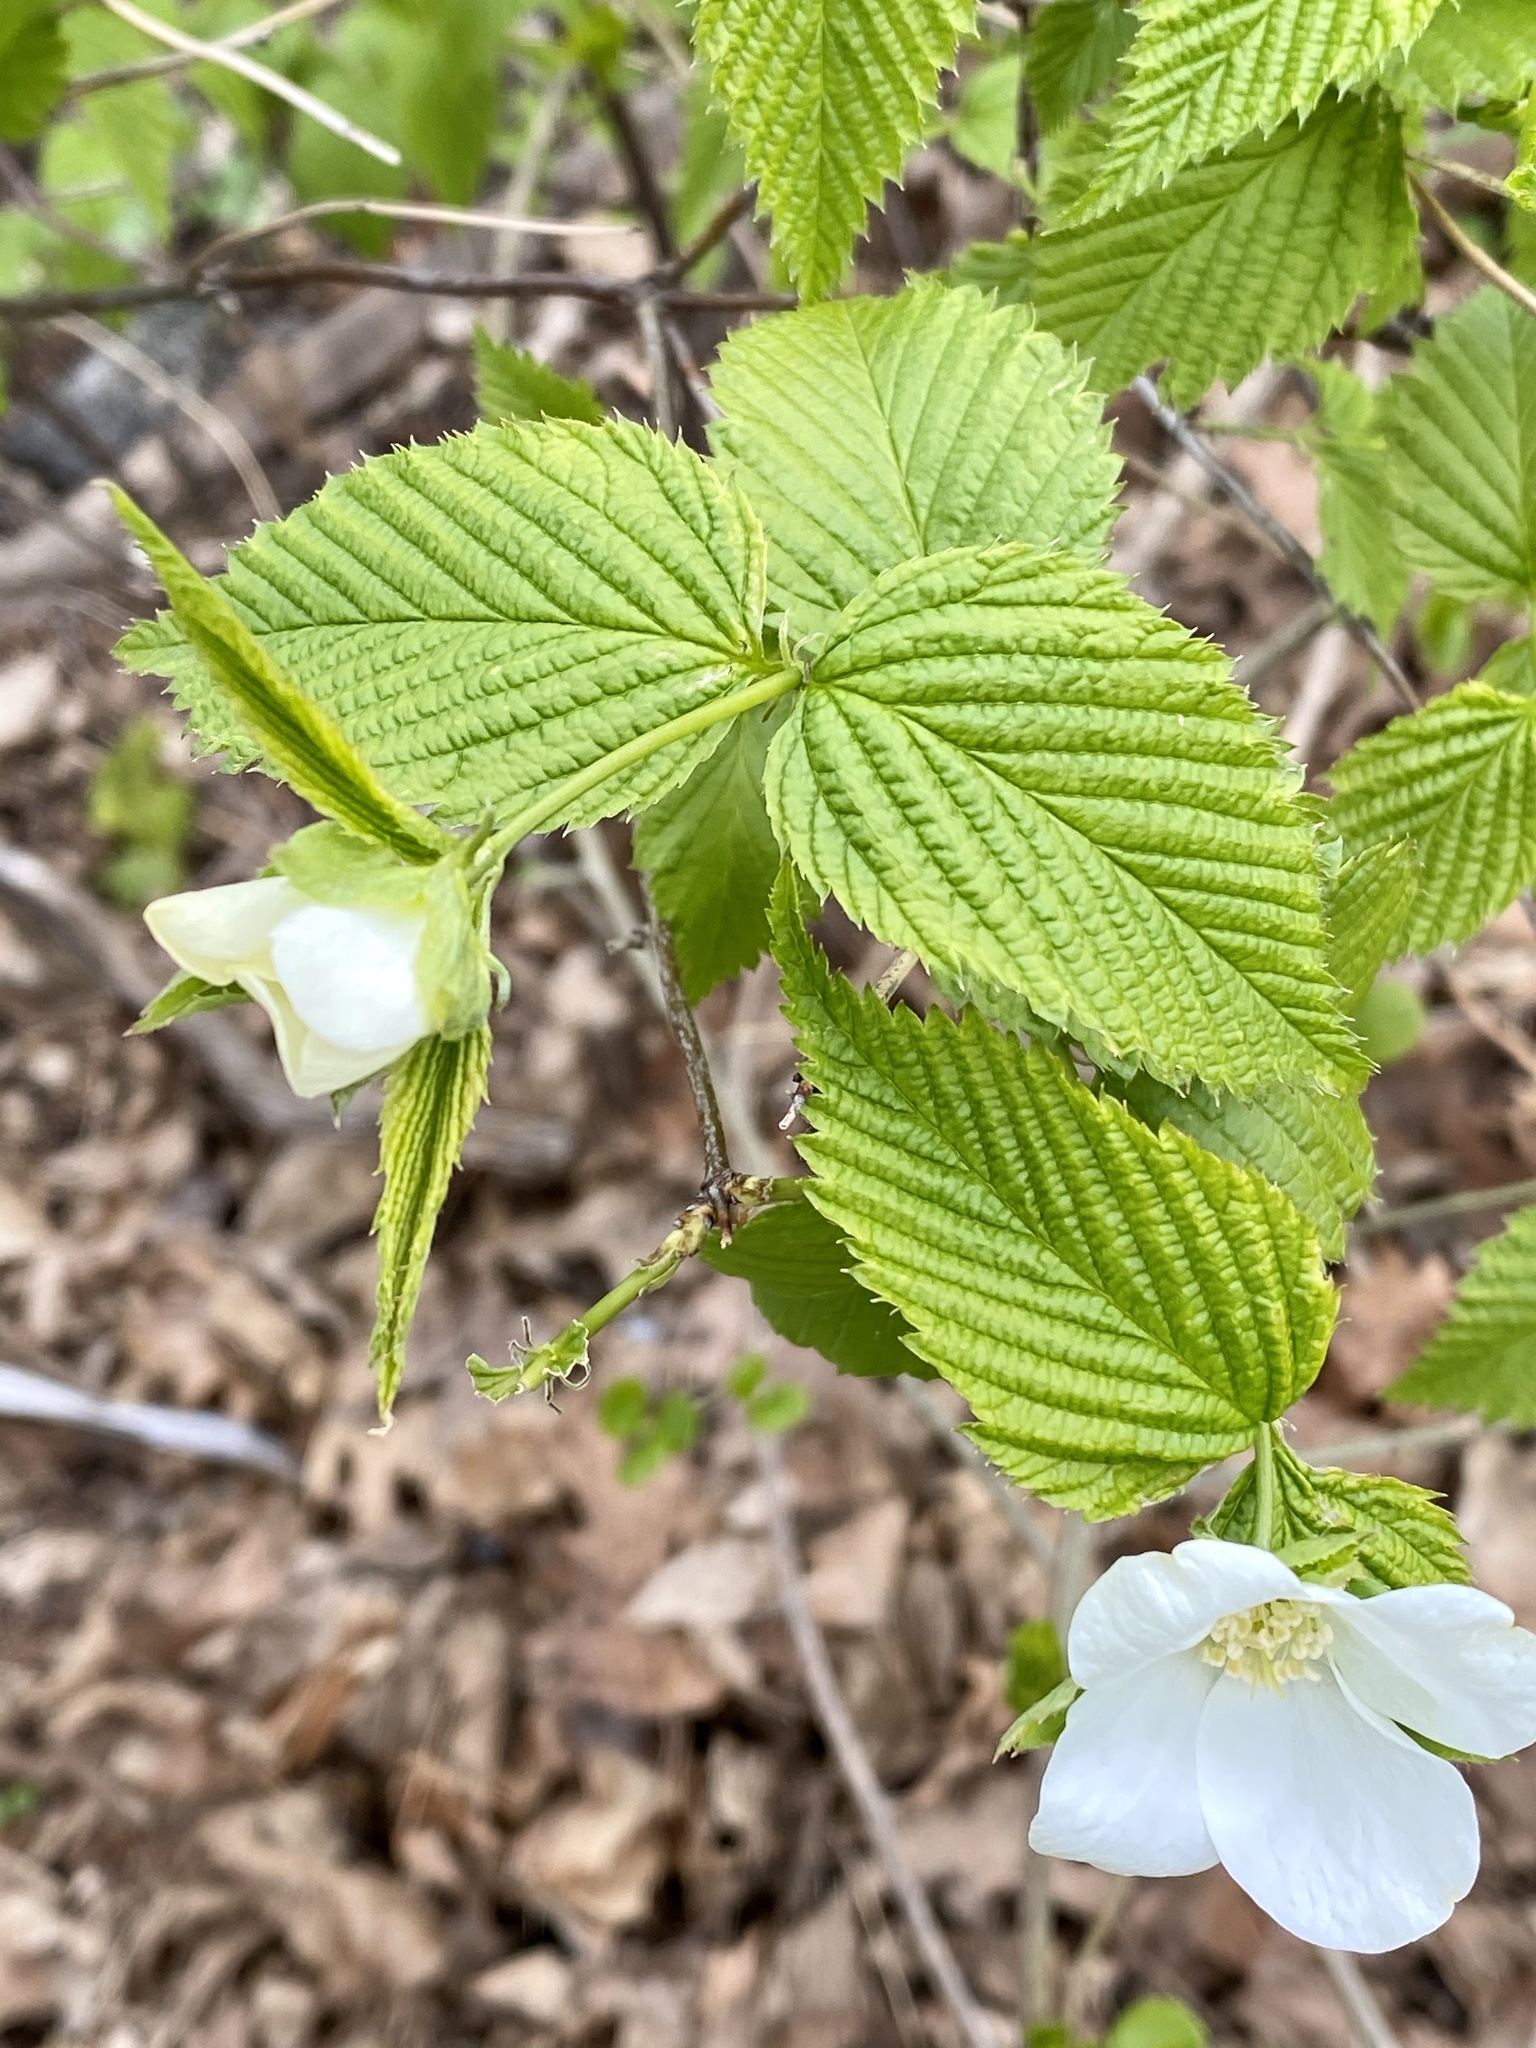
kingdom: Plantae
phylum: Tracheophyta
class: Magnoliopsida
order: Rosales
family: Rosaceae
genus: Rhodotypos
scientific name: Rhodotypos scandens
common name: Jetbead
